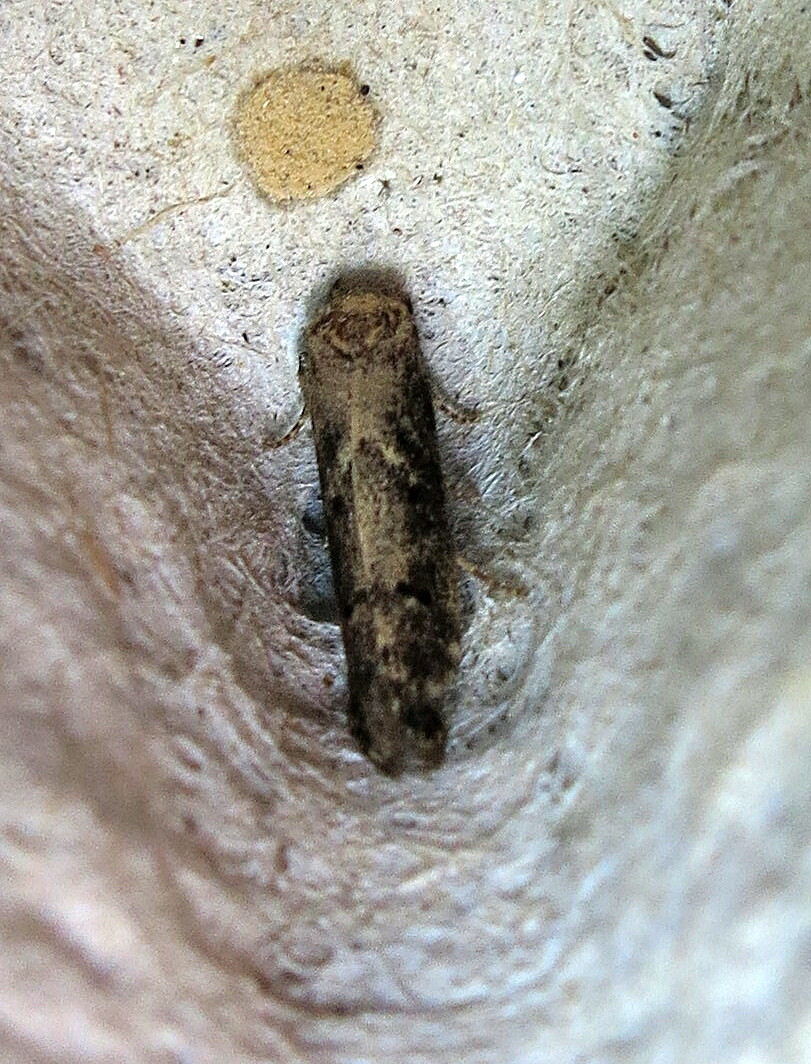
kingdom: Animalia
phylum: Arthropoda
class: Insecta
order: Lepidoptera
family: Blastobasidae
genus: Blastobasis
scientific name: Blastobasis adustella
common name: Dingy dowd
